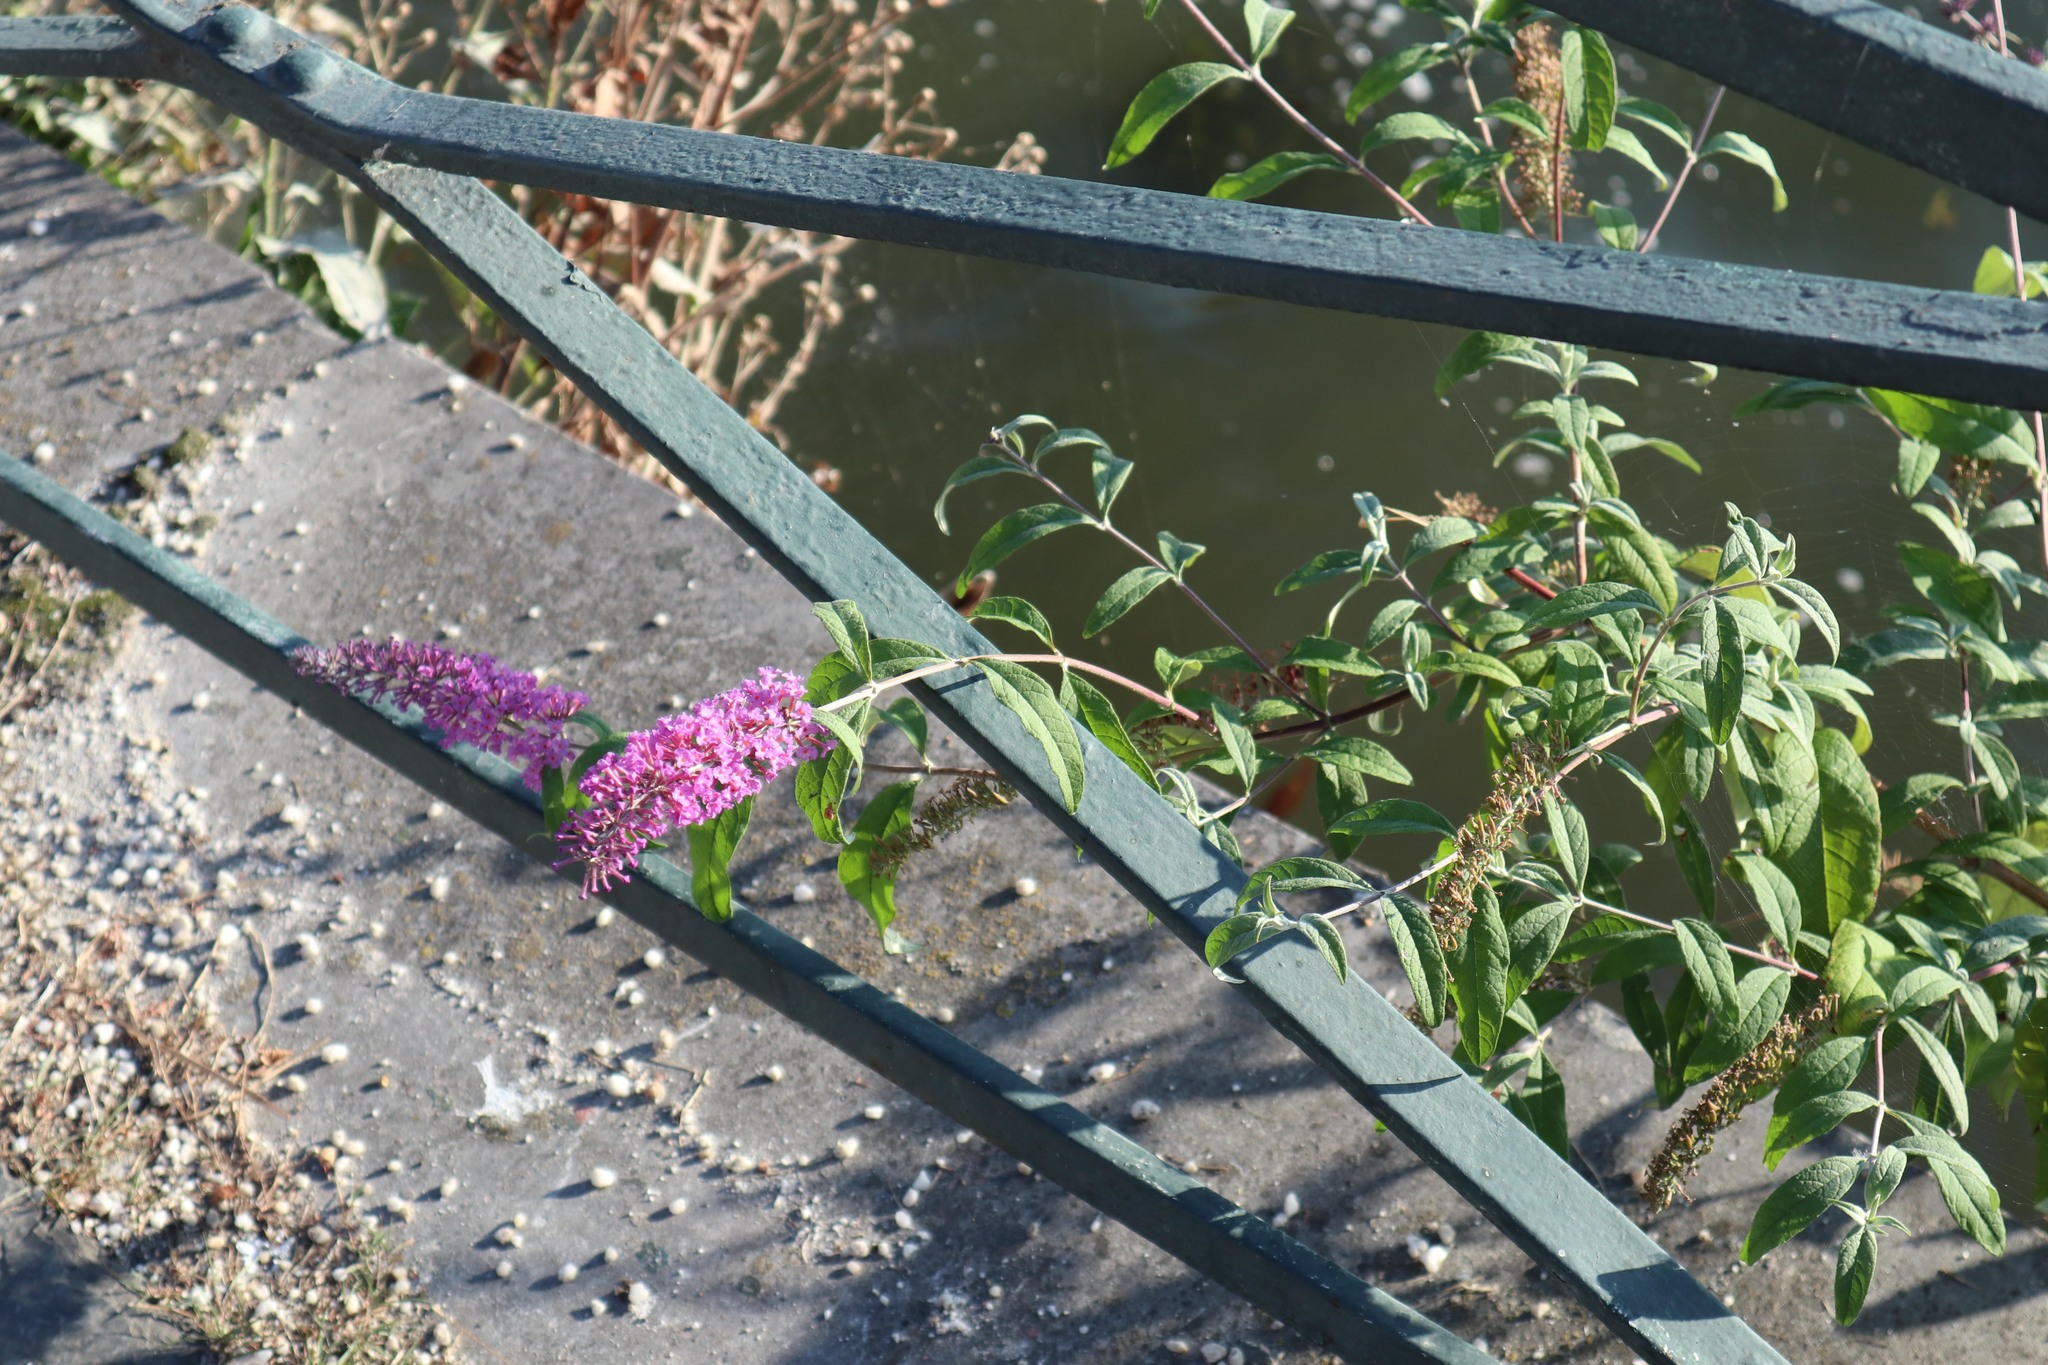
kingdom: Plantae
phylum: Tracheophyta
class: Magnoliopsida
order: Lamiales
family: Scrophulariaceae
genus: Buddleja
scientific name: Buddleja davidii
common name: Butterfly-bush
